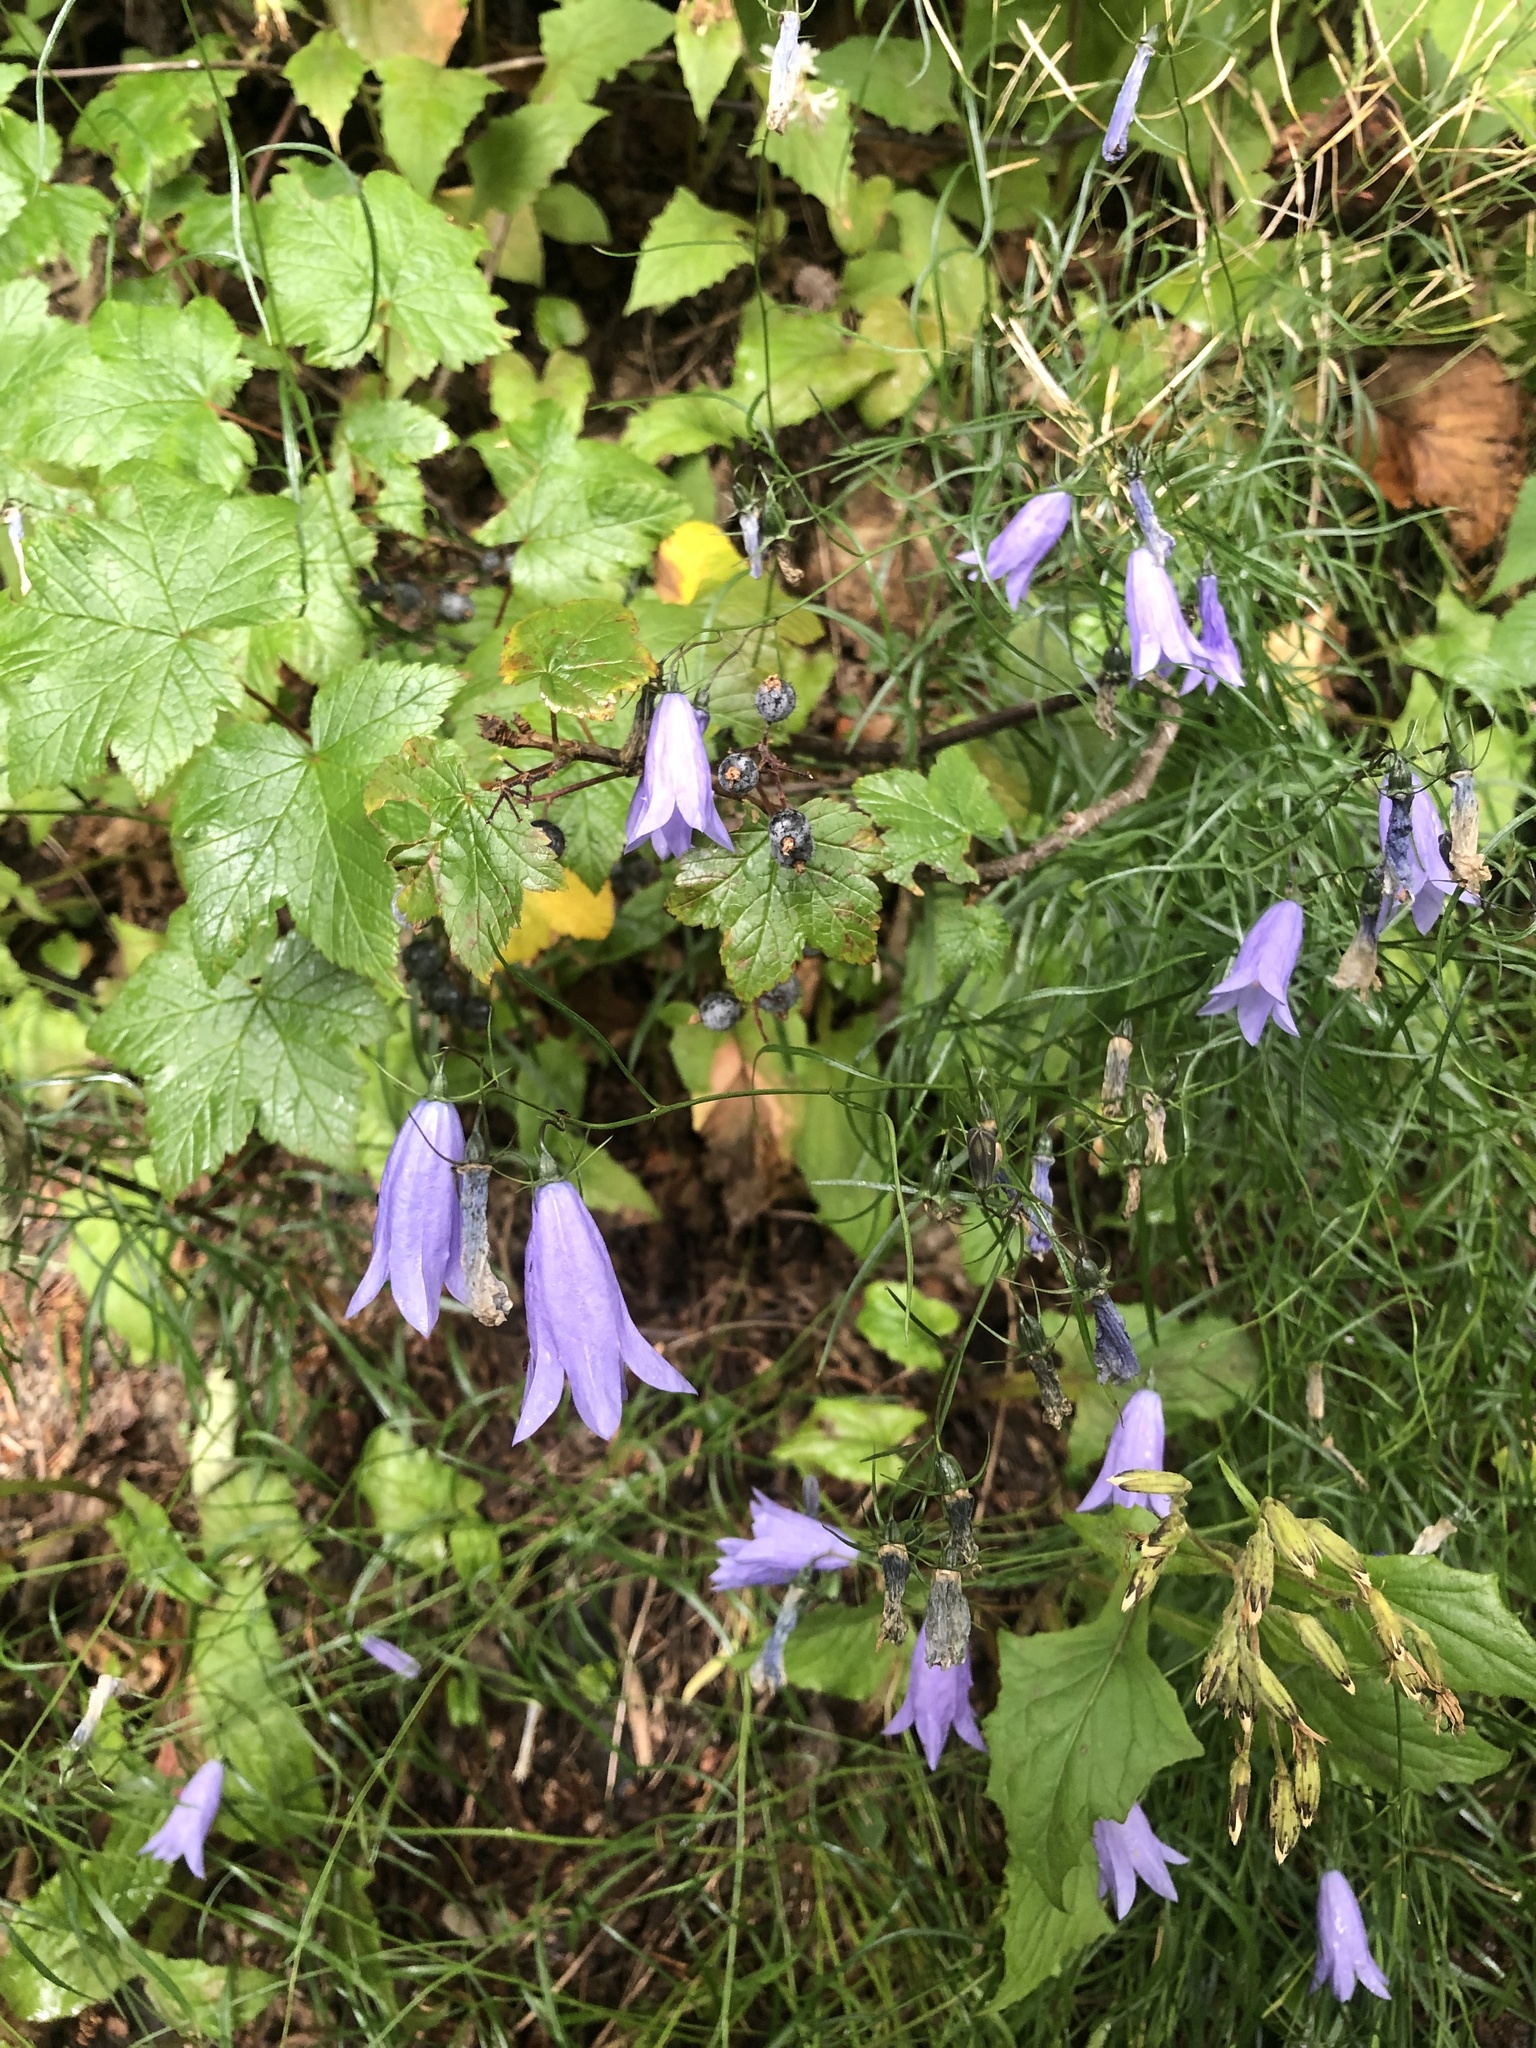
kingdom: Plantae
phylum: Tracheophyta
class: Magnoliopsida
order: Asterales
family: Campanulaceae
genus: Campanula
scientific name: Campanula alaskana
